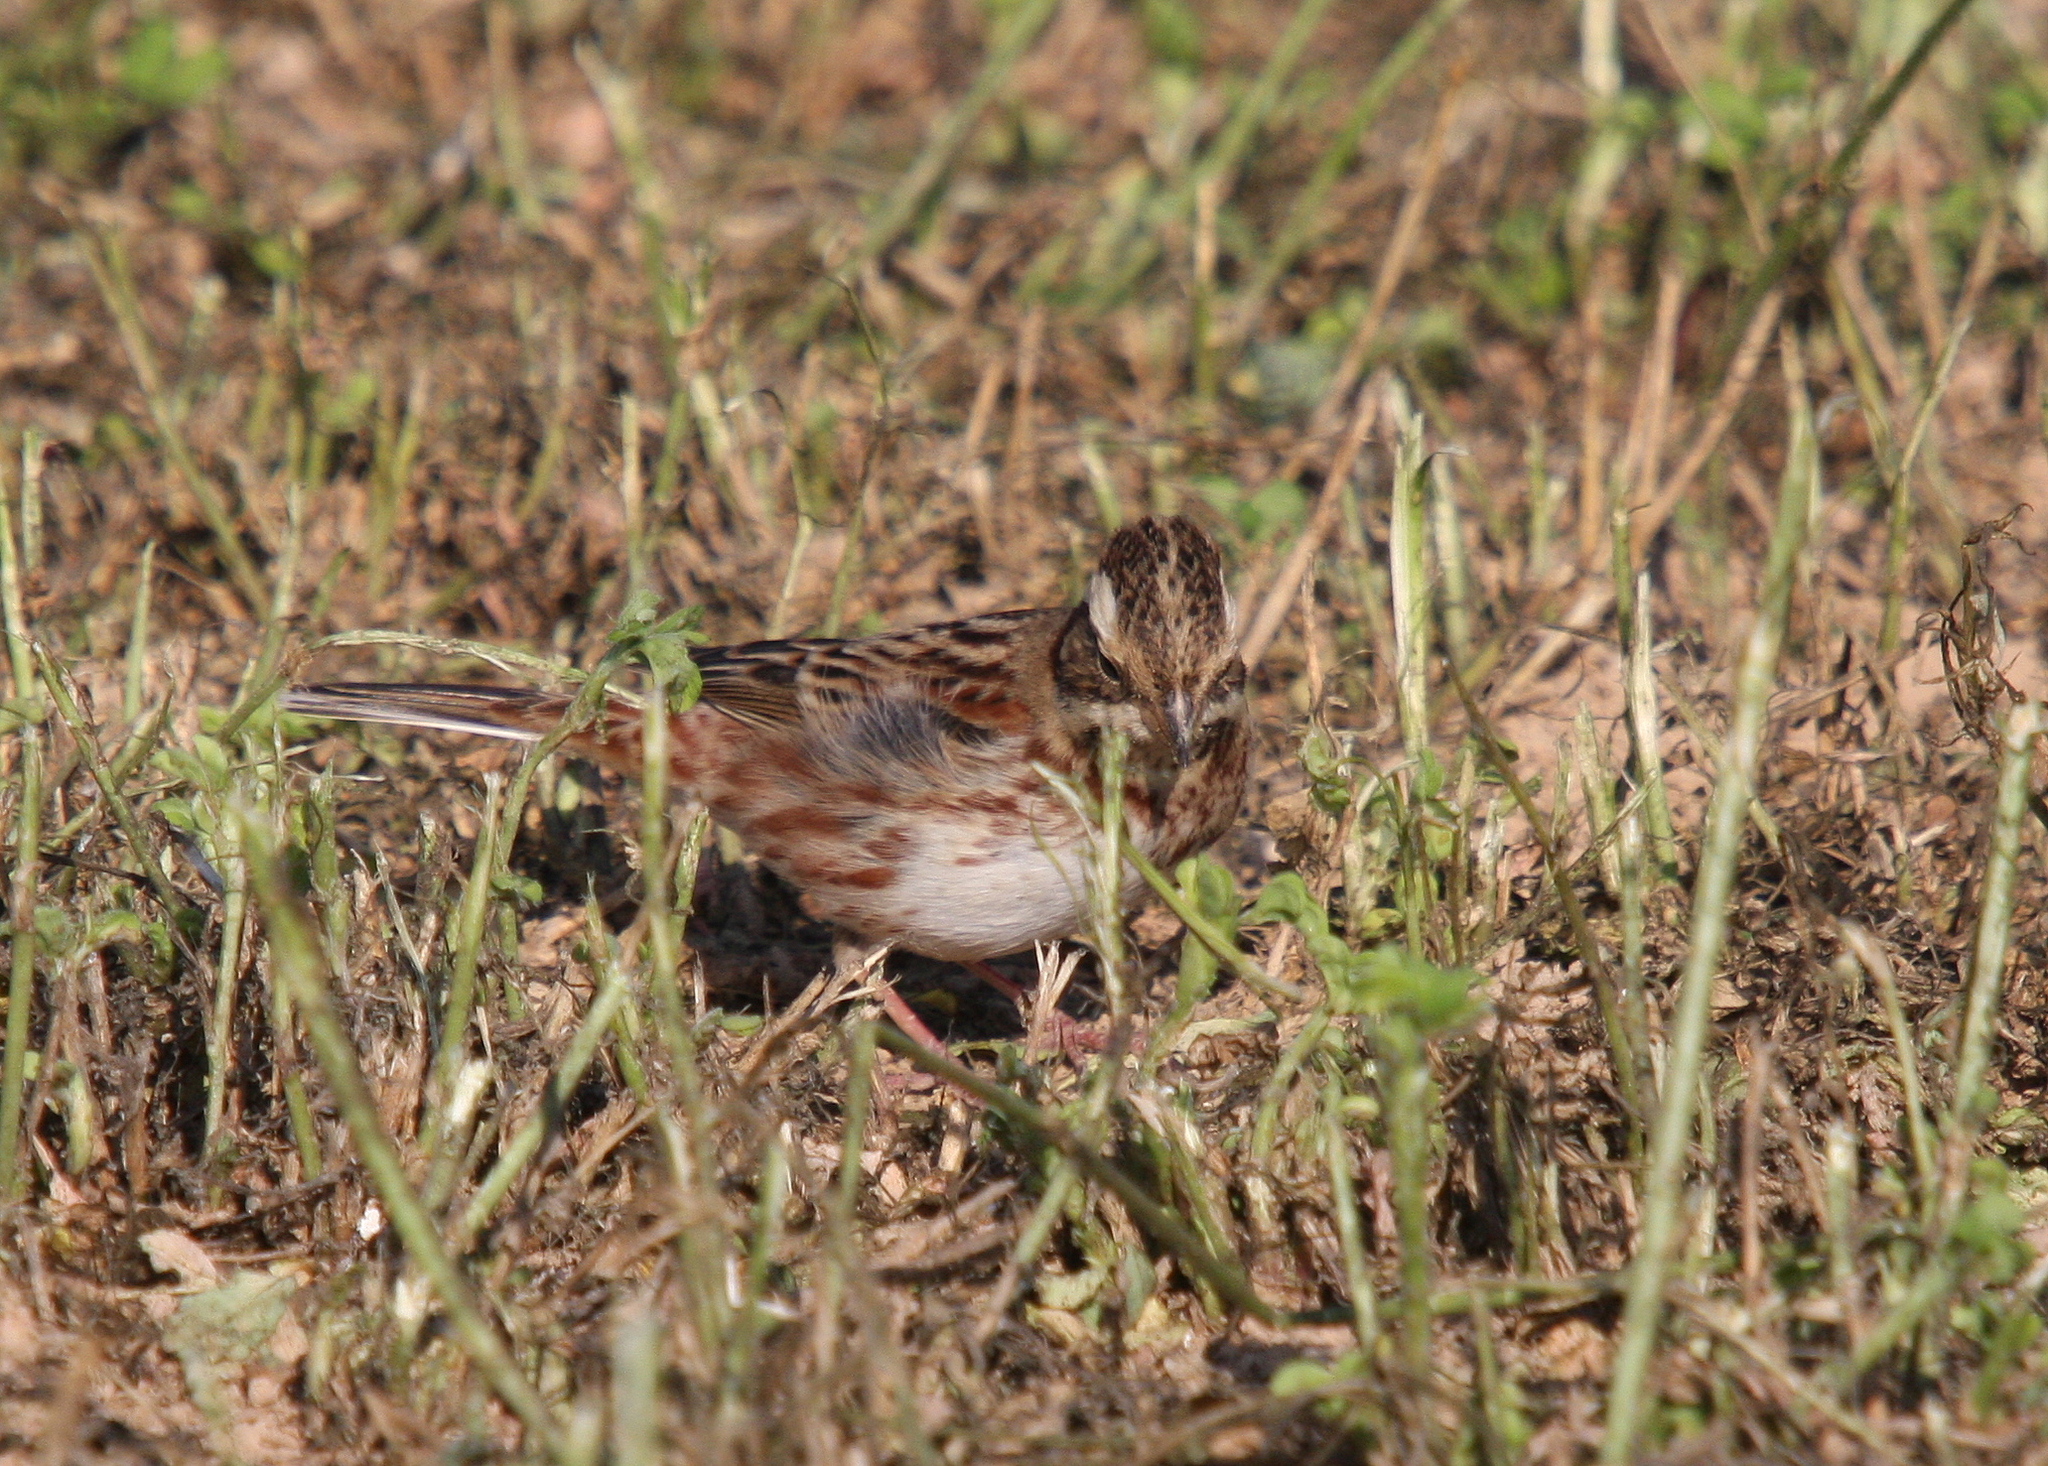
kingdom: Animalia
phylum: Chordata
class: Aves
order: Passeriformes
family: Emberizidae
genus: Emberiza
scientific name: Emberiza rustica
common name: Rustic bunting
